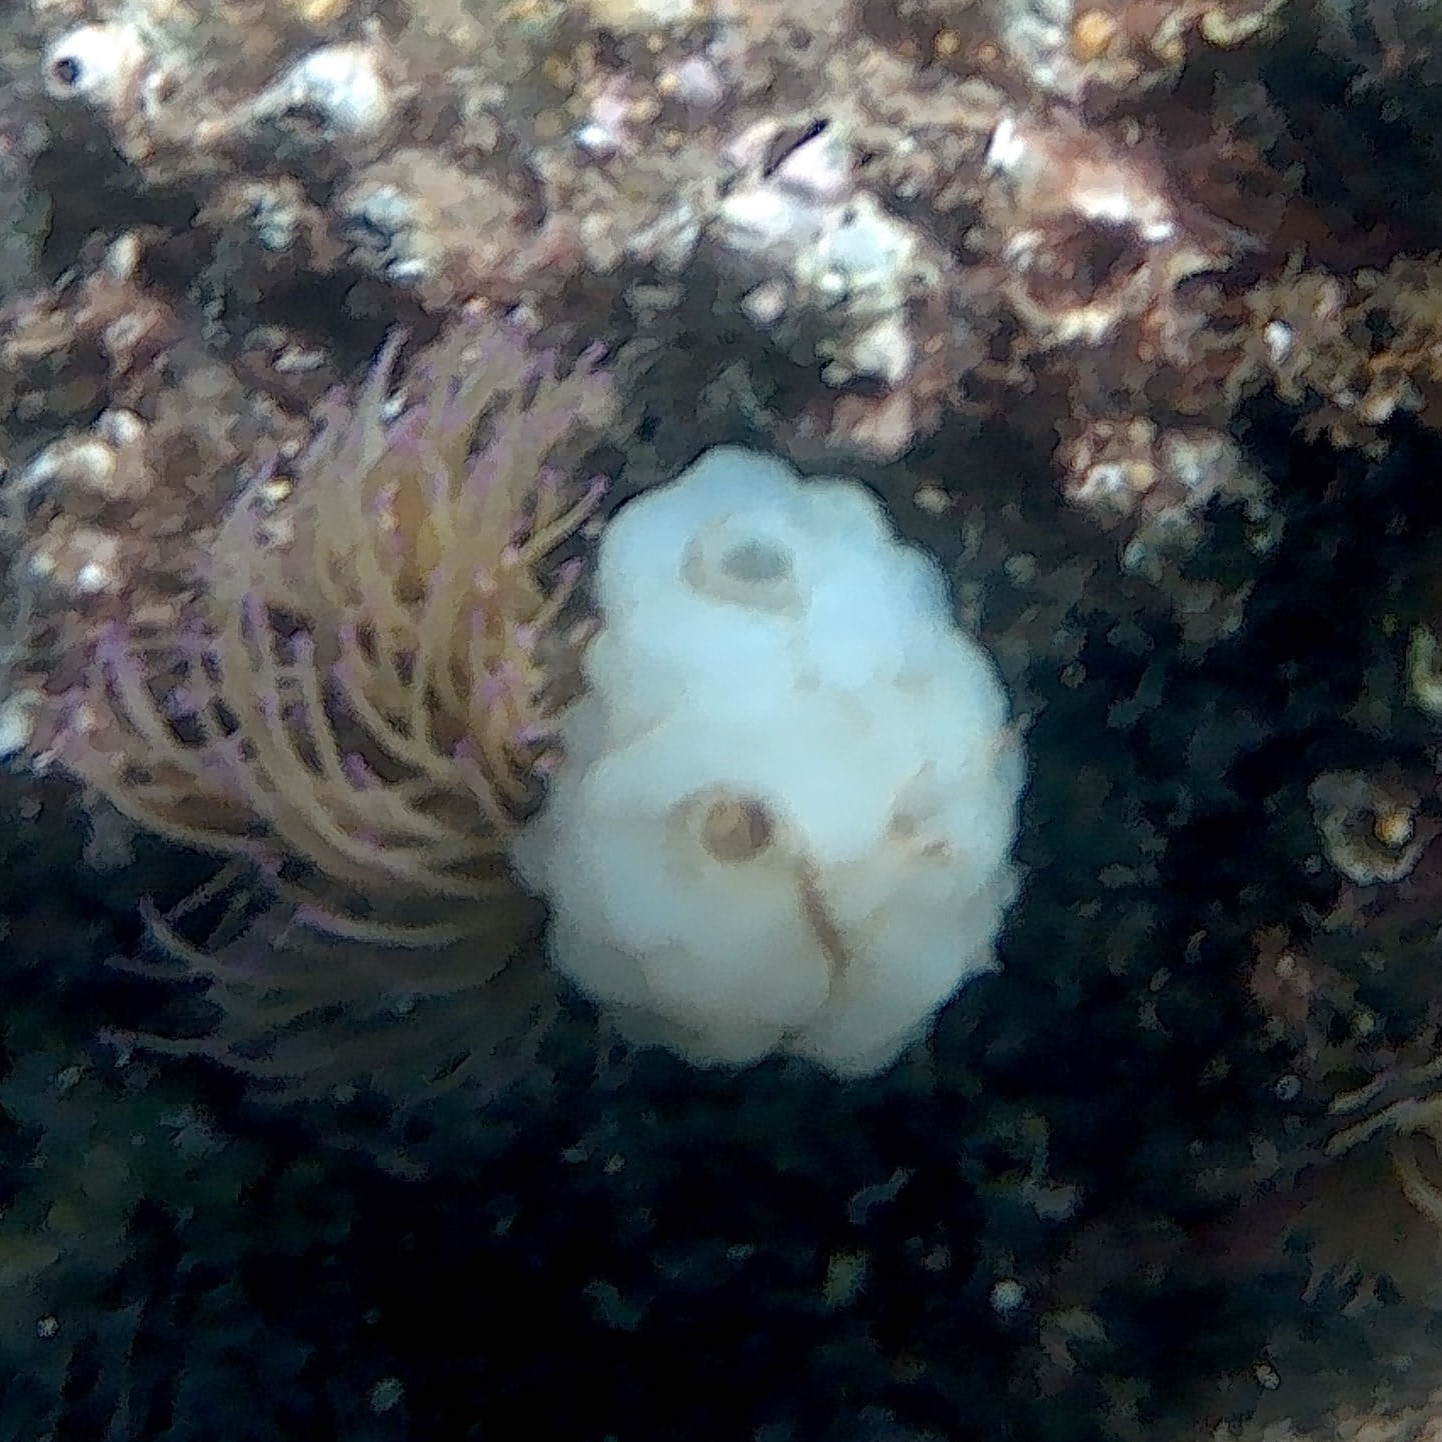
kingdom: Animalia
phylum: Chordata
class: Ascidiacea
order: Phlebobranchia
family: Ascidiidae
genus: Phallusia
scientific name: Phallusia mammillata
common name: Neptune's heart sea squirt
